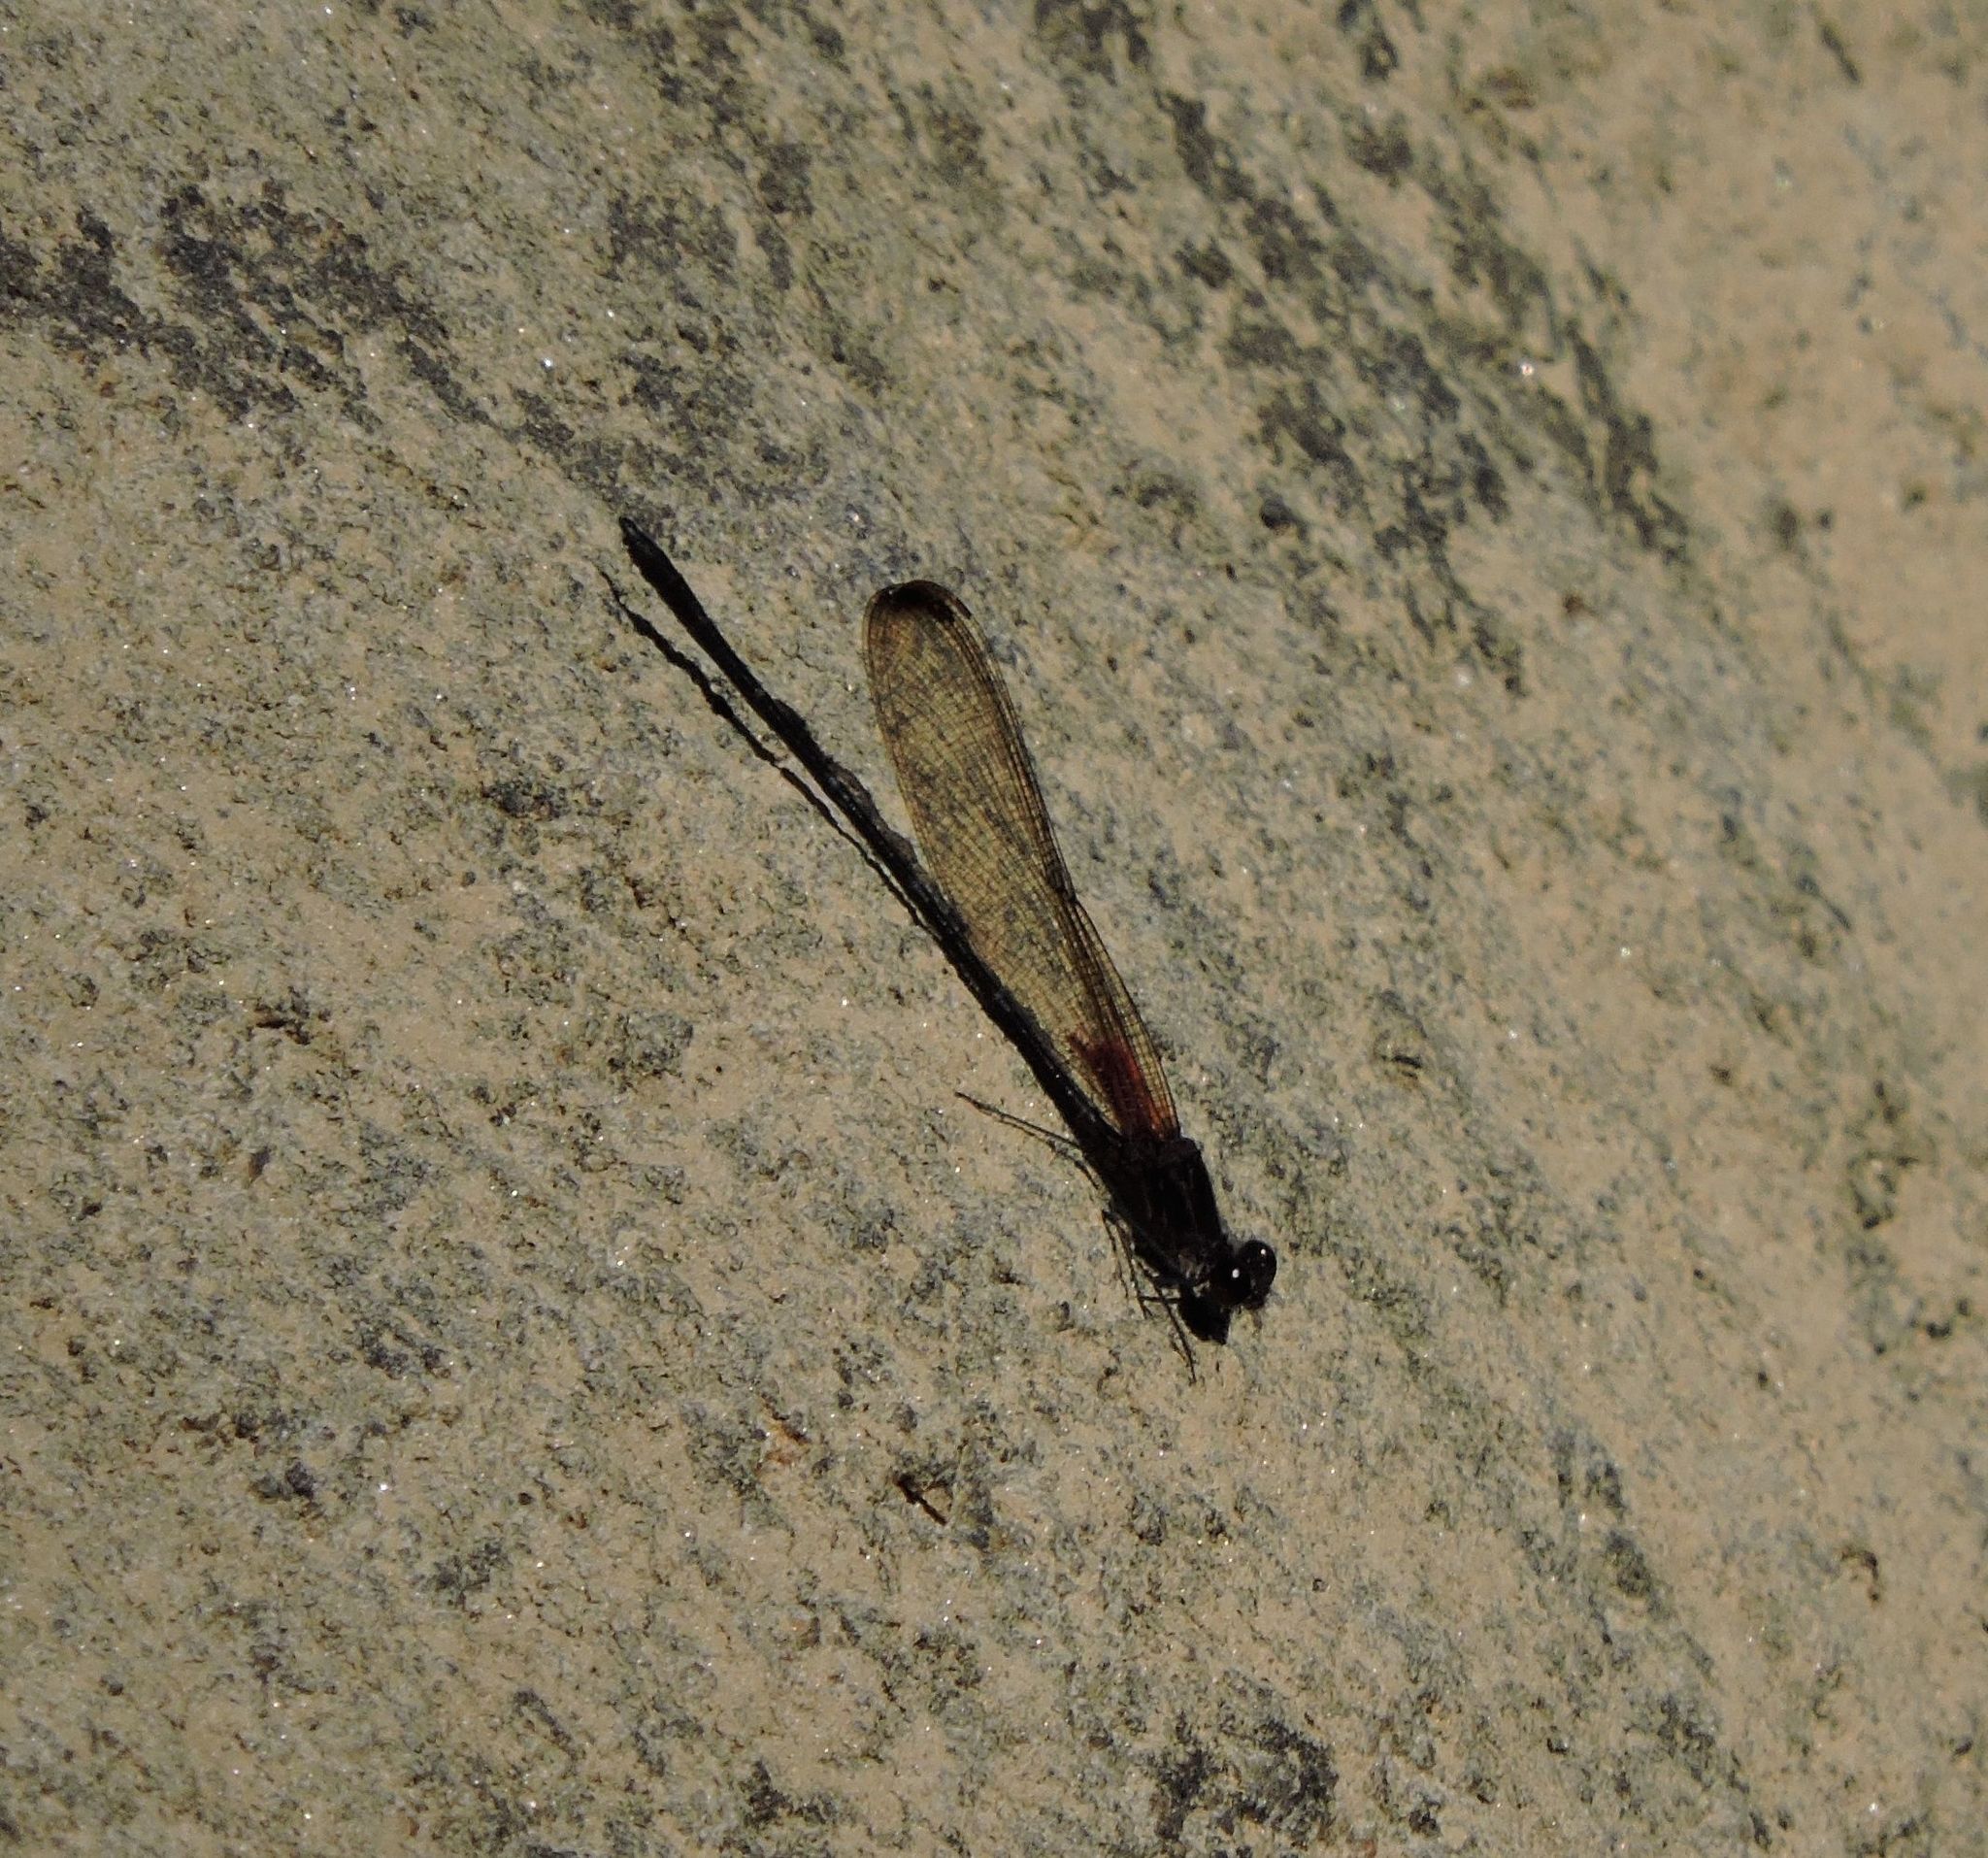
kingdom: Animalia
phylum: Arthropoda
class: Insecta
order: Odonata
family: Calopterygidae
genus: Hetaerina
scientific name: Hetaerina titia
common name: Smoky rubyspot
